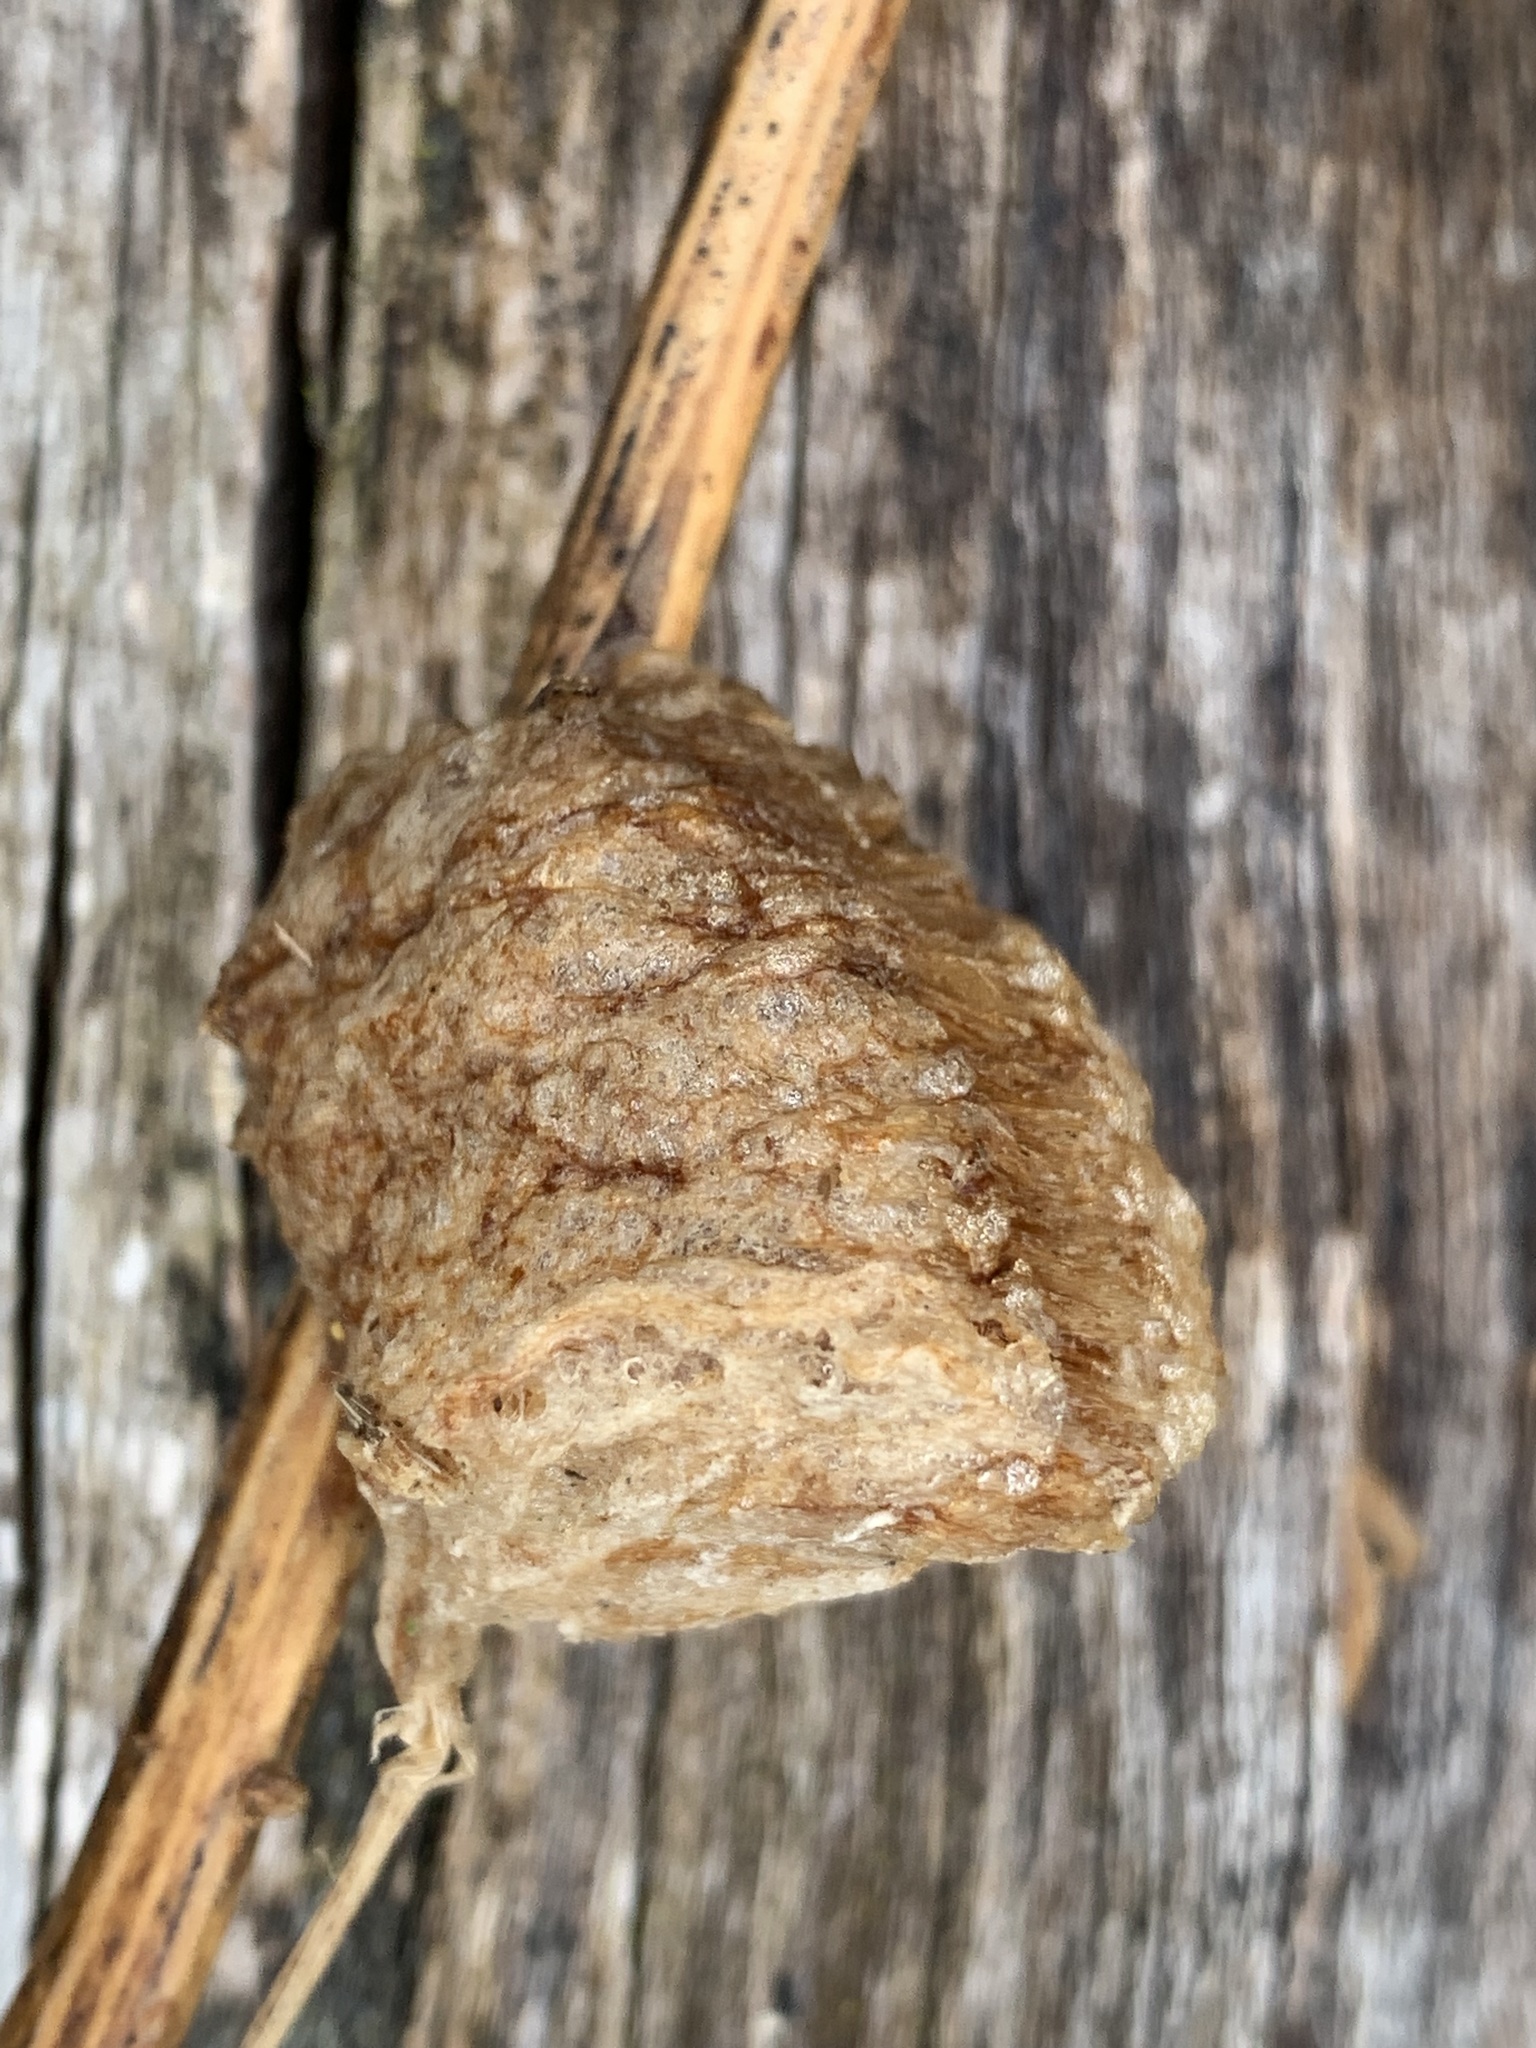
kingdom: Animalia
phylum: Arthropoda
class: Insecta
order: Mantodea
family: Mantidae
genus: Tenodera
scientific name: Tenodera sinensis
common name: Chinese mantis
